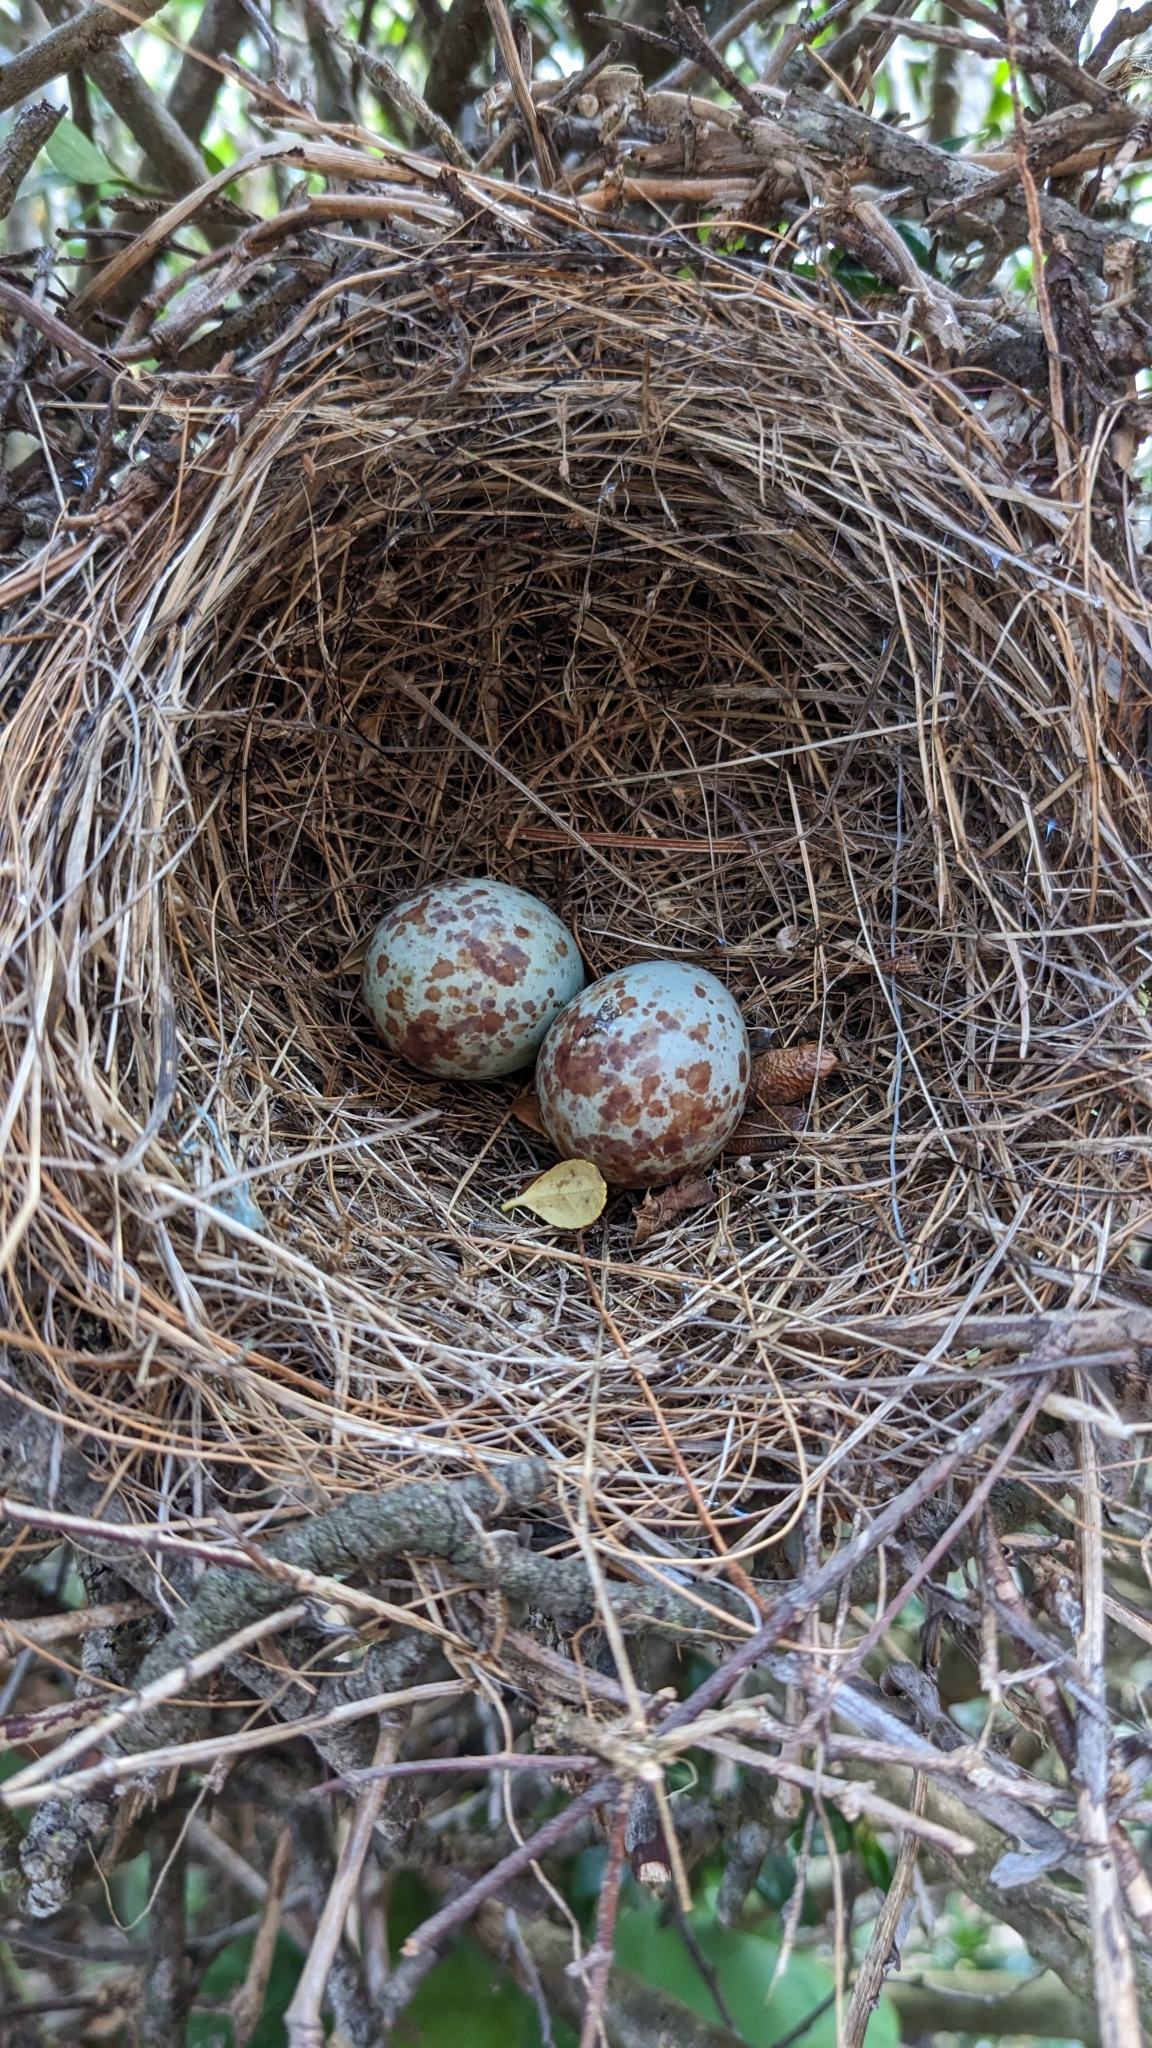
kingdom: Animalia
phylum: Chordata
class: Aves
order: Passeriformes
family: Mimidae
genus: Mimus
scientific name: Mimus polyglottos
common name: Northern mockingbird
